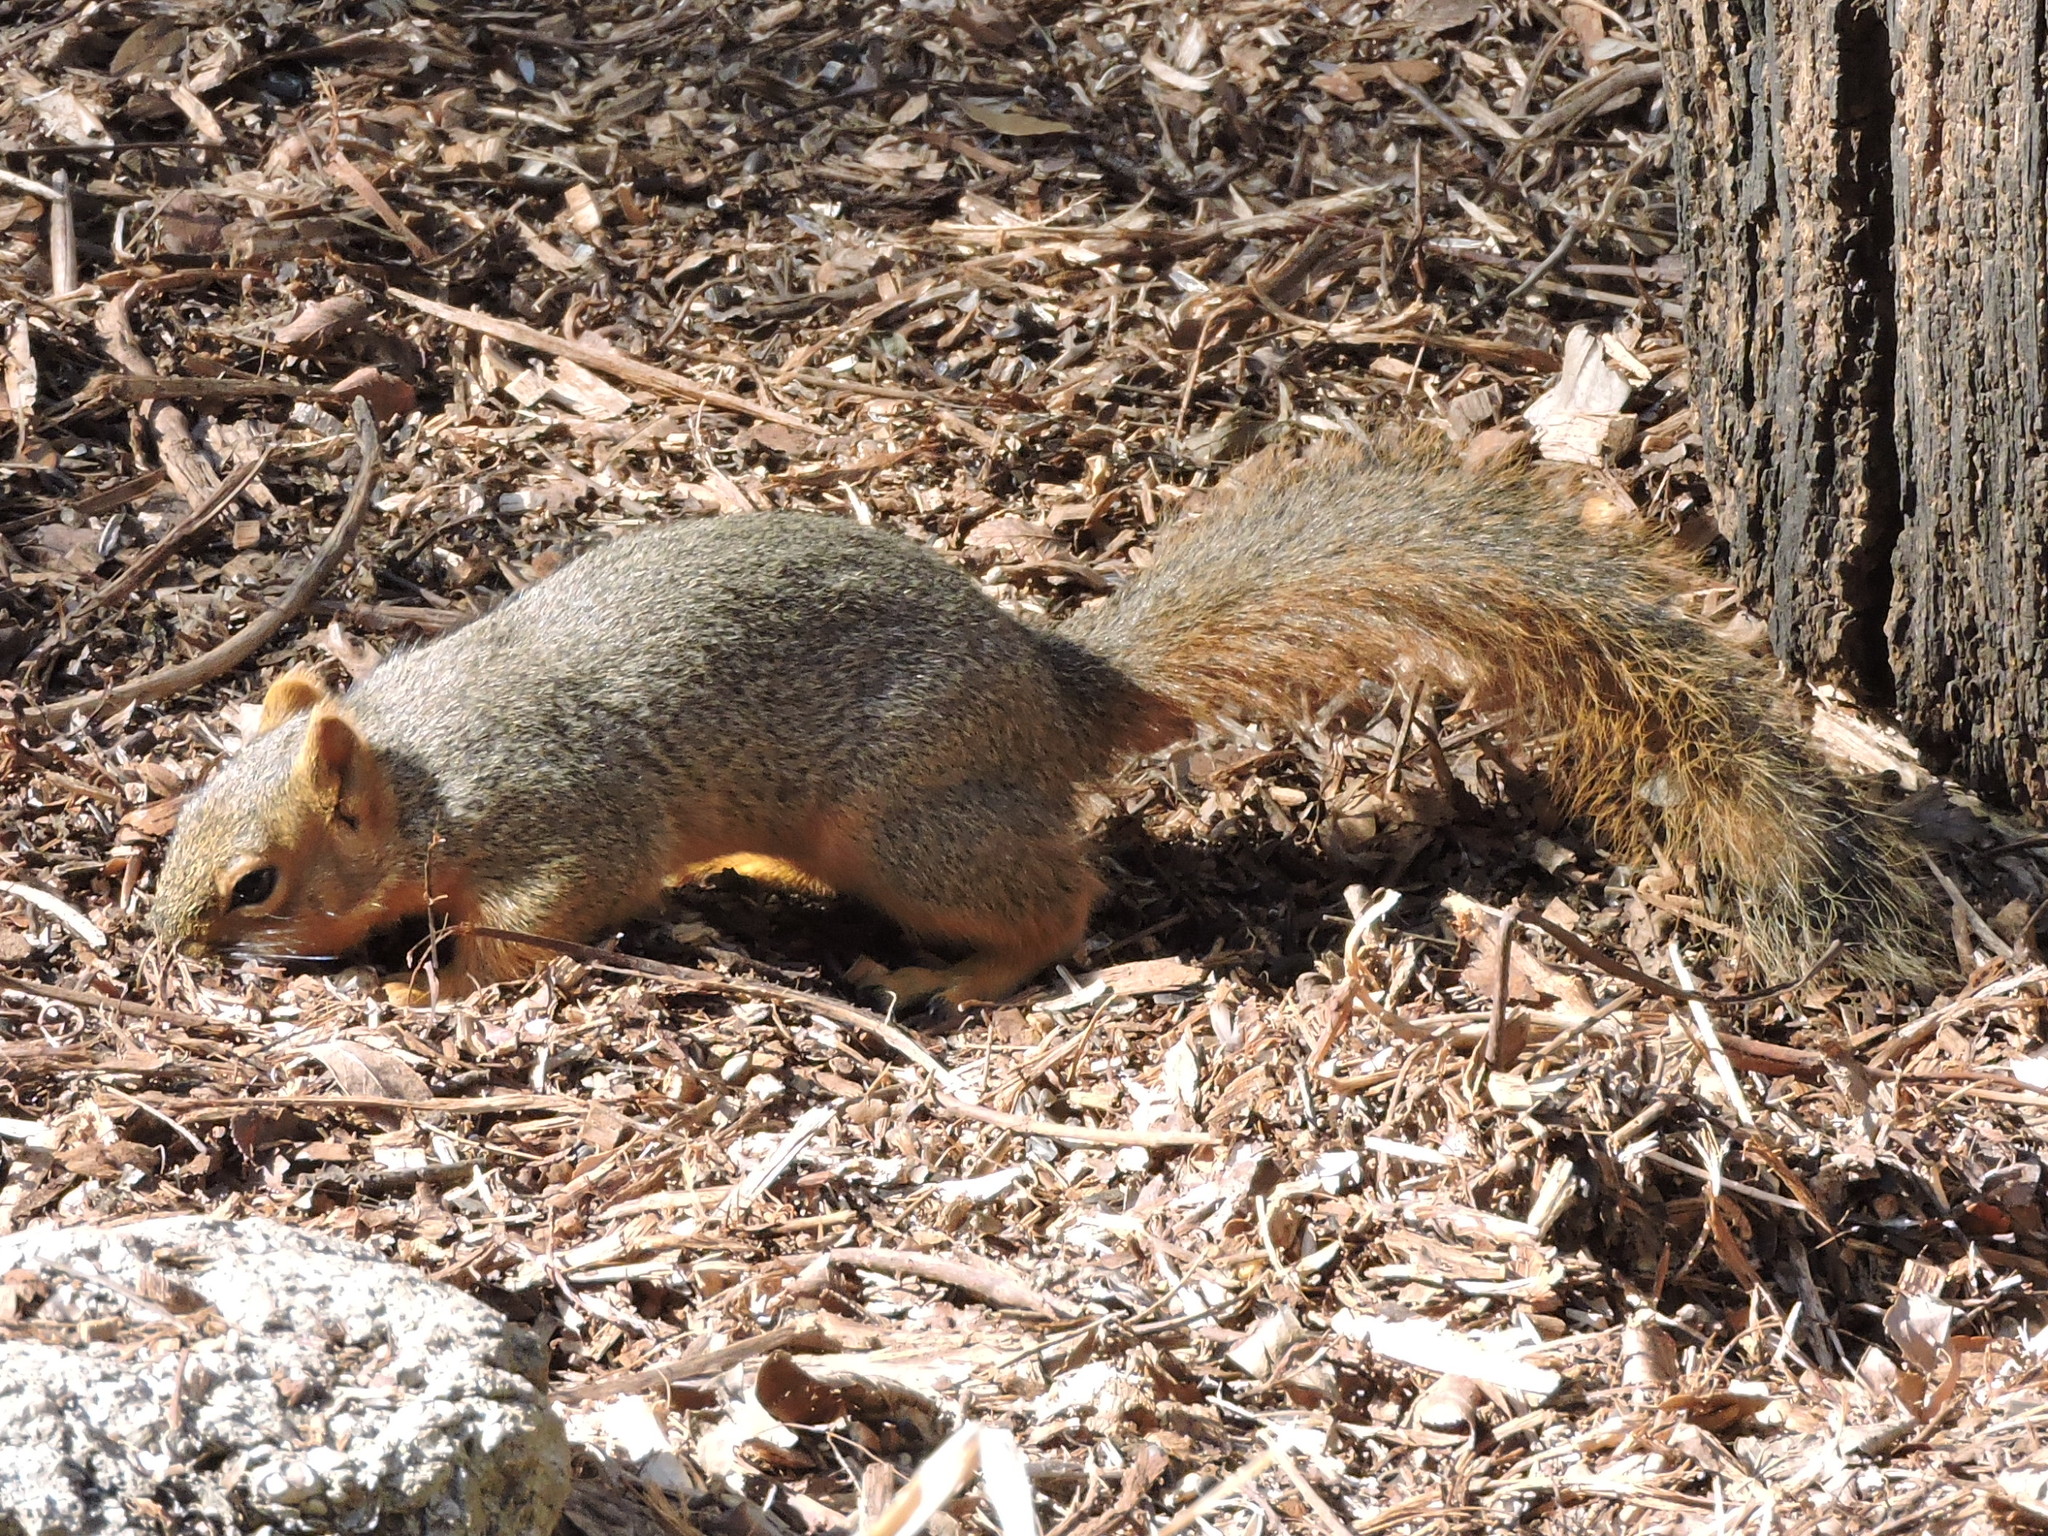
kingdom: Animalia
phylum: Chordata
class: Mammalia
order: Rodentia
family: Sciuridae
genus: Sciurus
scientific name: Sciurus niger
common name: Fox squirrel
